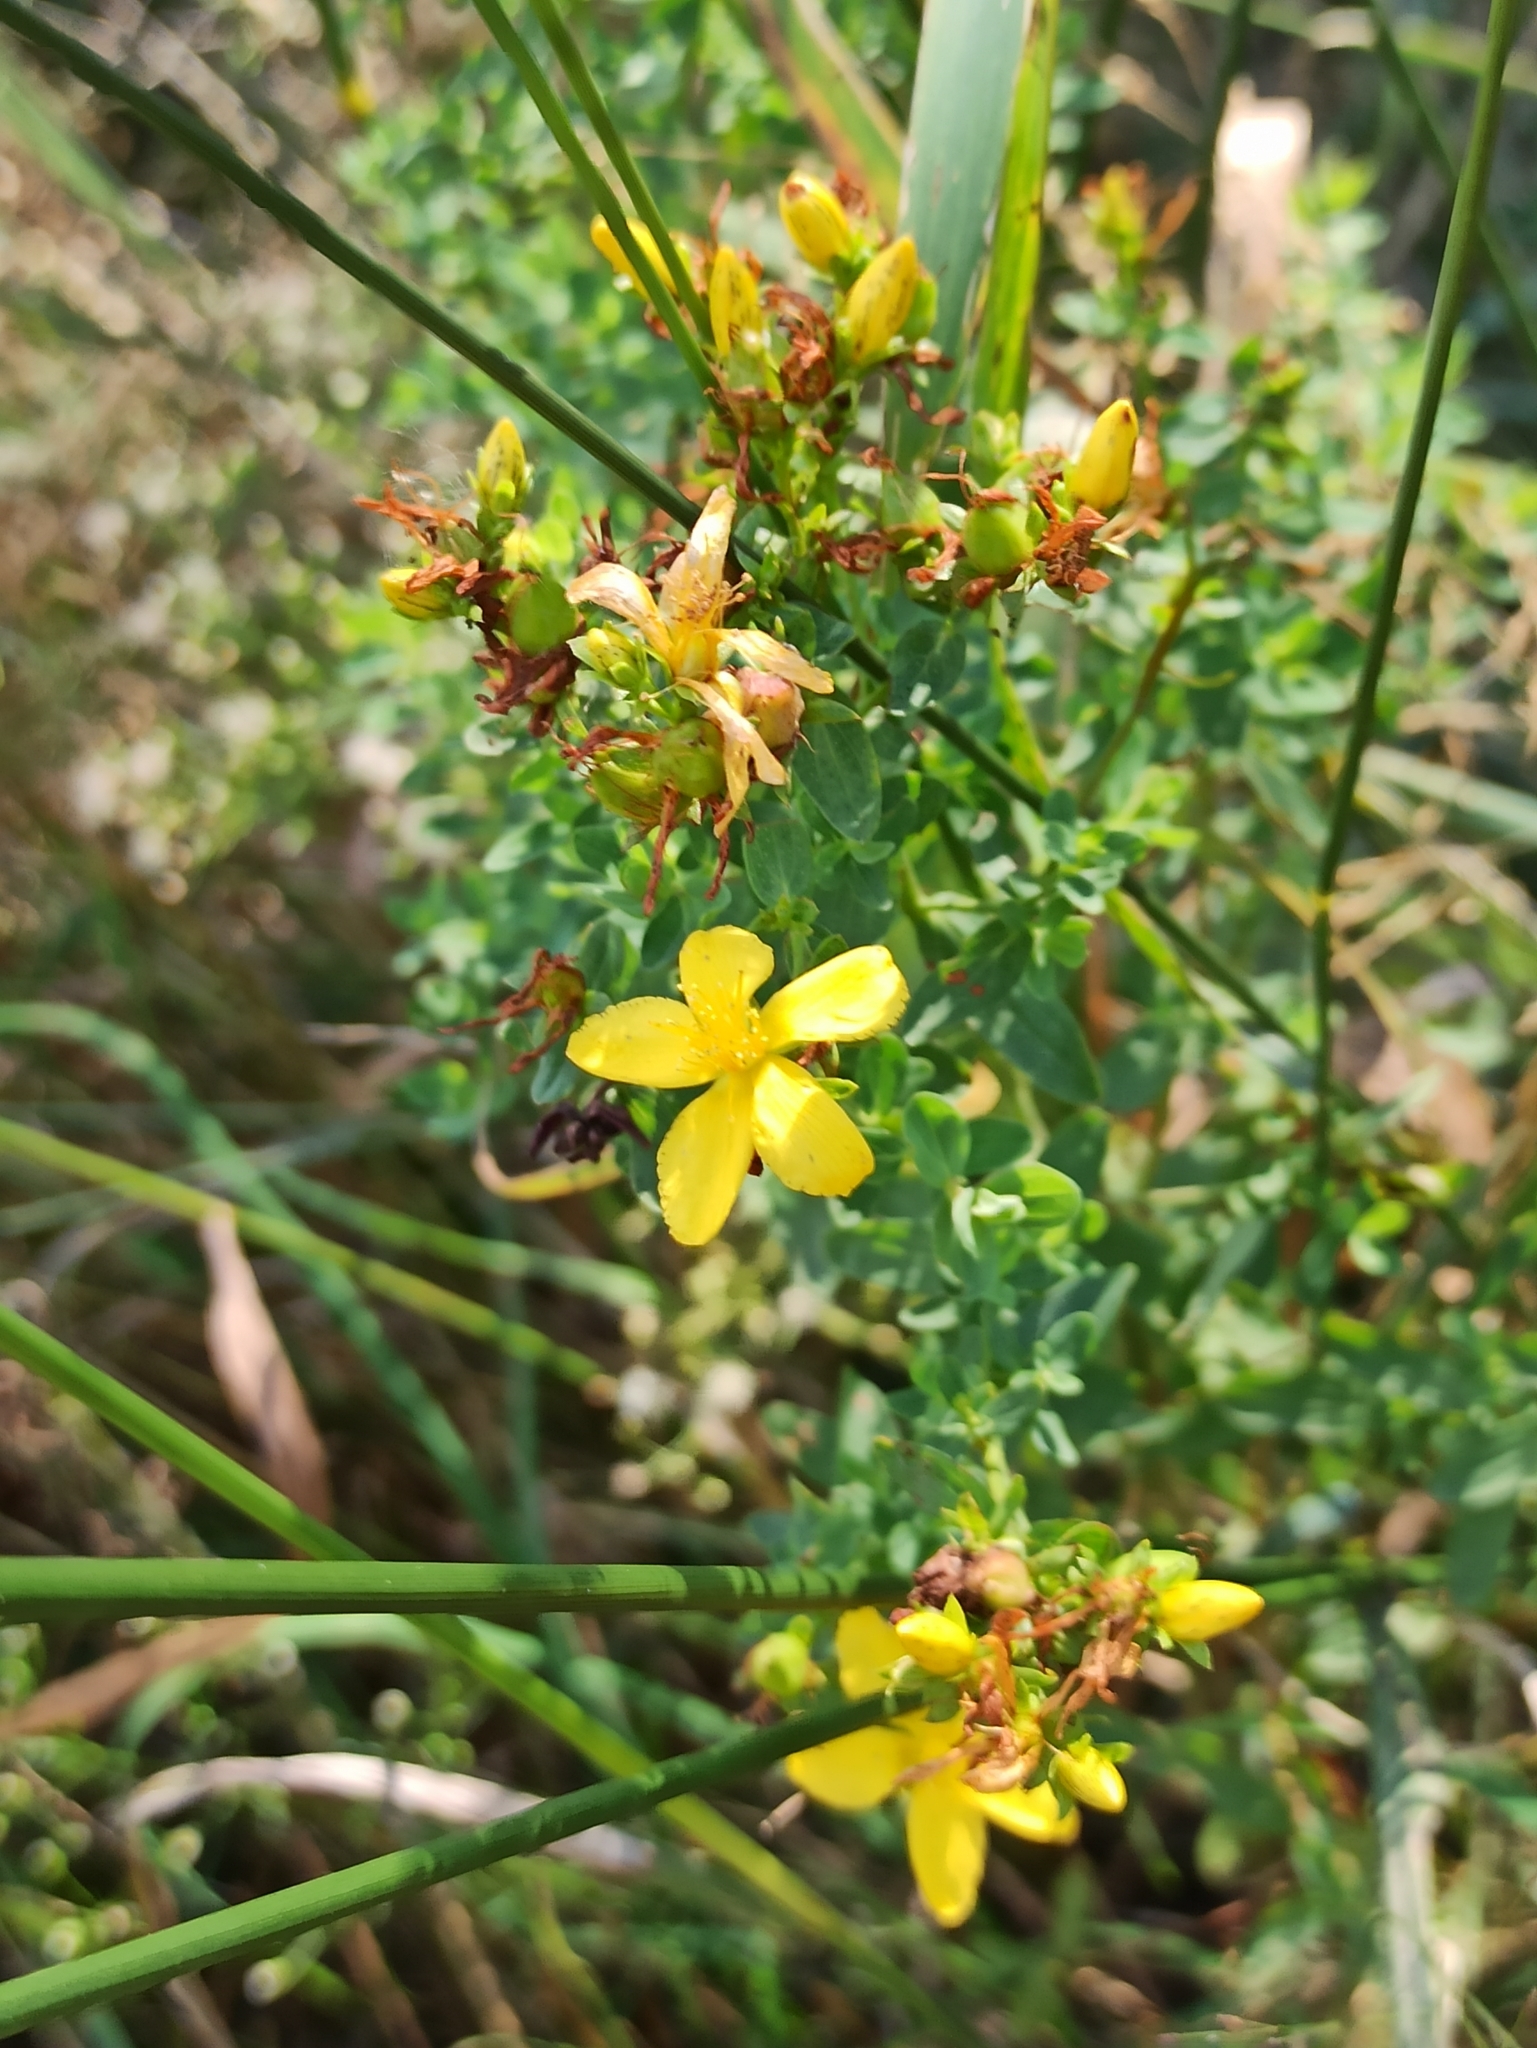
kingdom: Plantae
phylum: Tracheophyta
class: Magnoliopsida
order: Malpighiales
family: Hypericaceae
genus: Hypericum
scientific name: Hypericum perforatum
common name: Common st. johnswort
